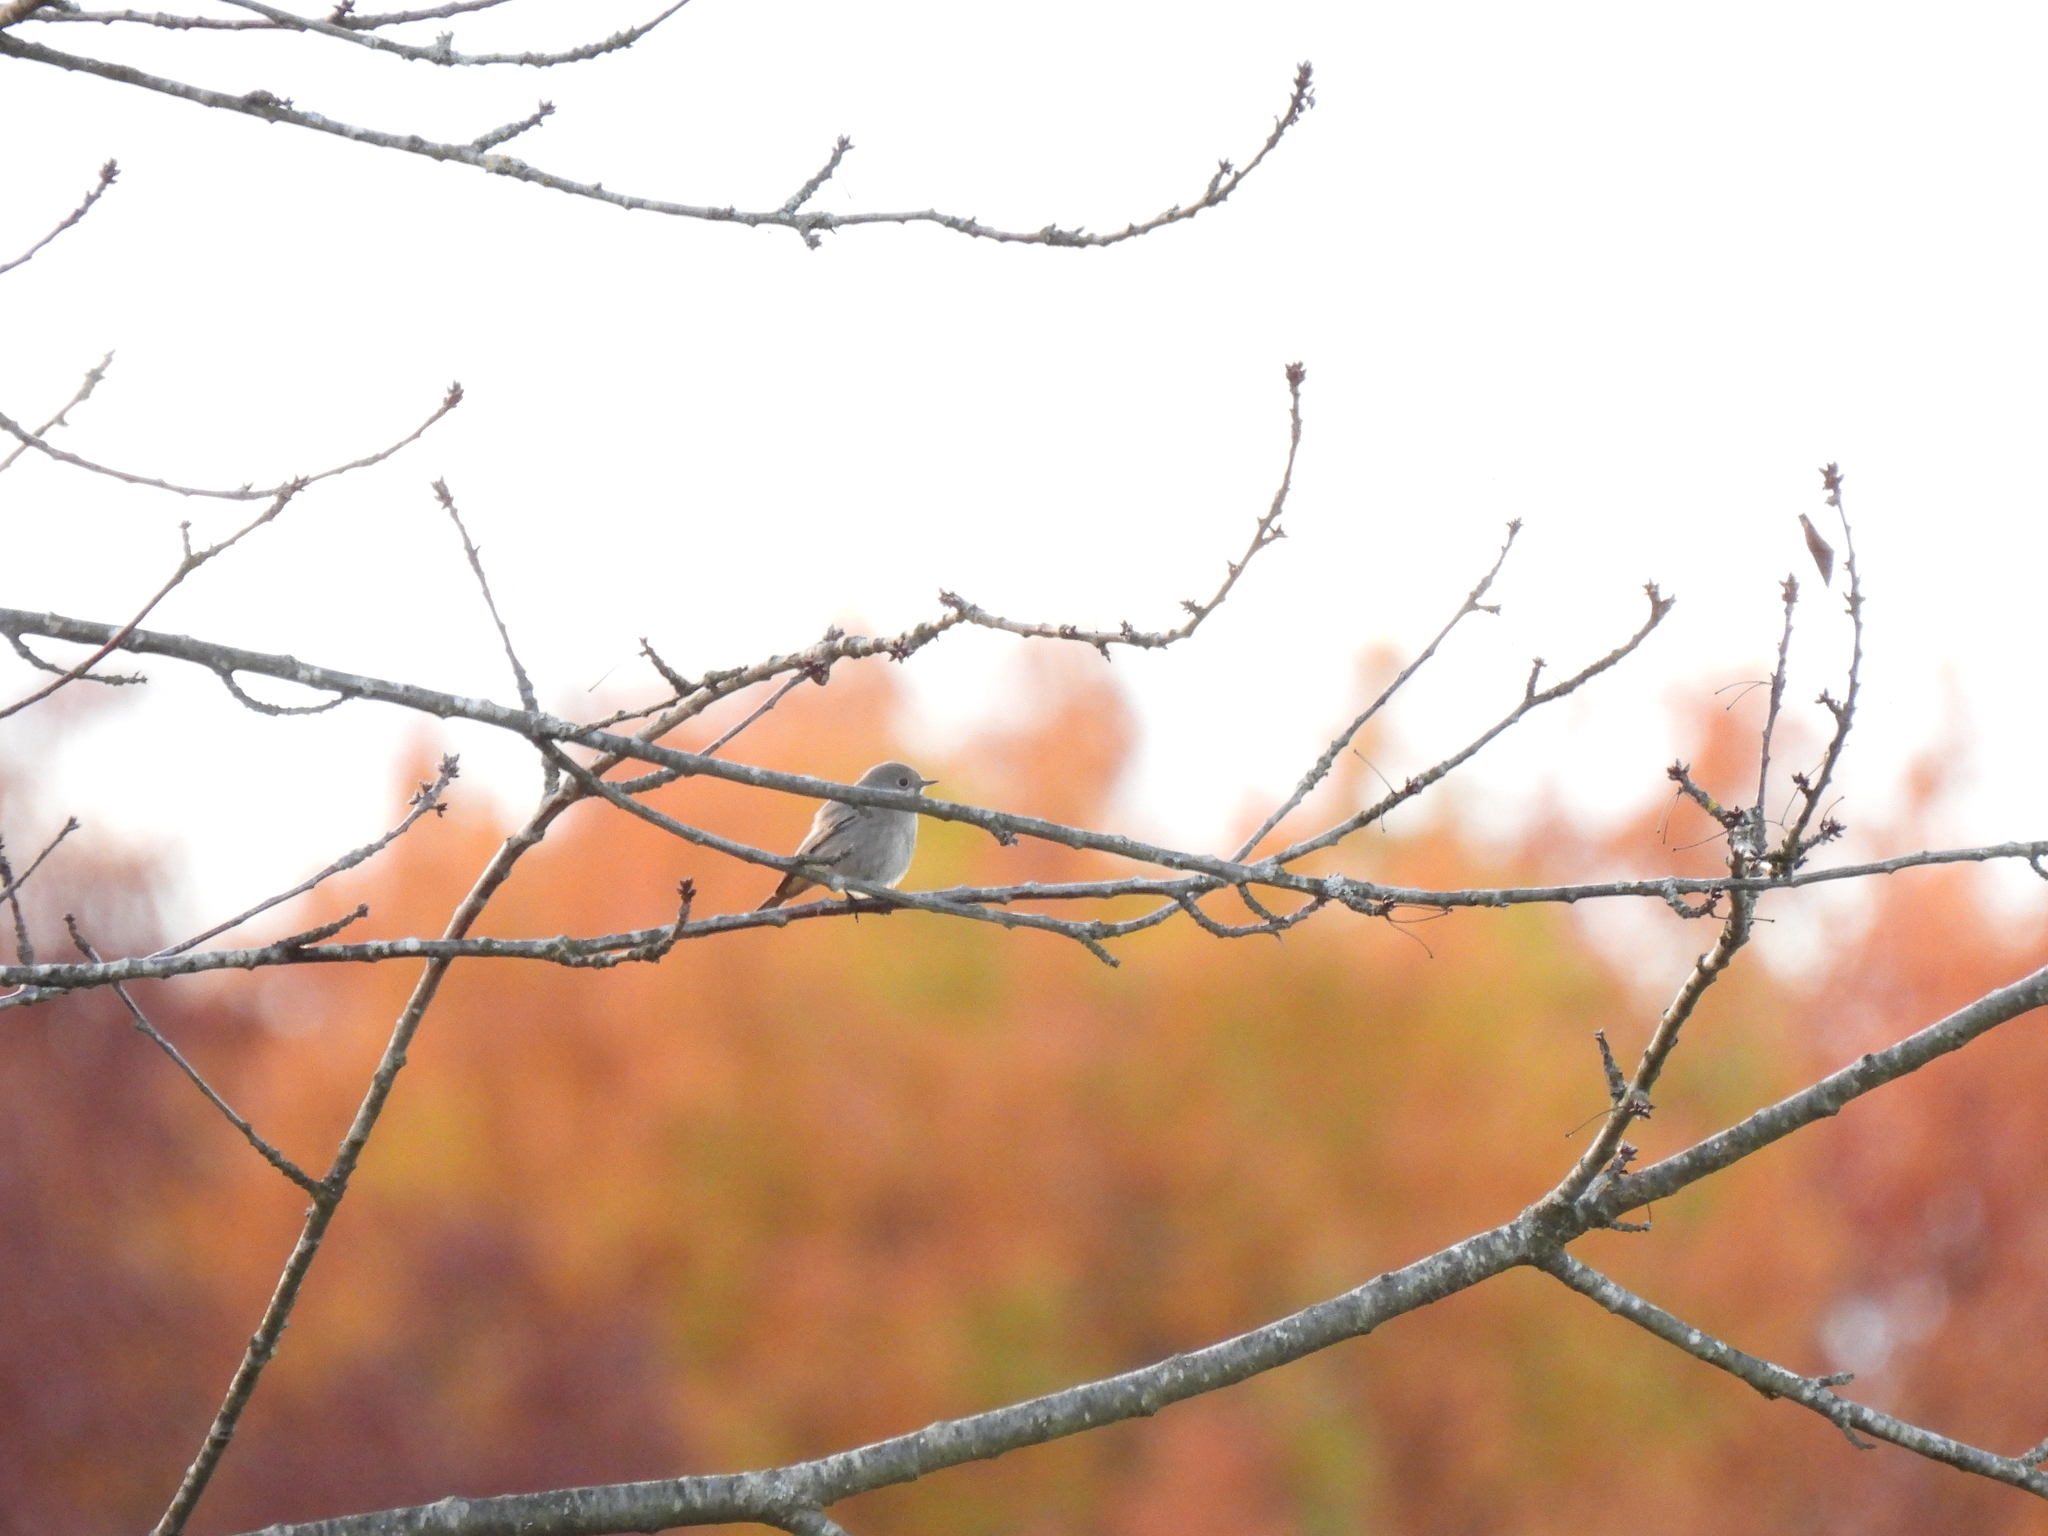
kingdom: Animalia
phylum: Chordata
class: Aves
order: Passeriformes
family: Muscicapidae
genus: Phoenicurus
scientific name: Phoenicurus ochruros
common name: Black redstart
